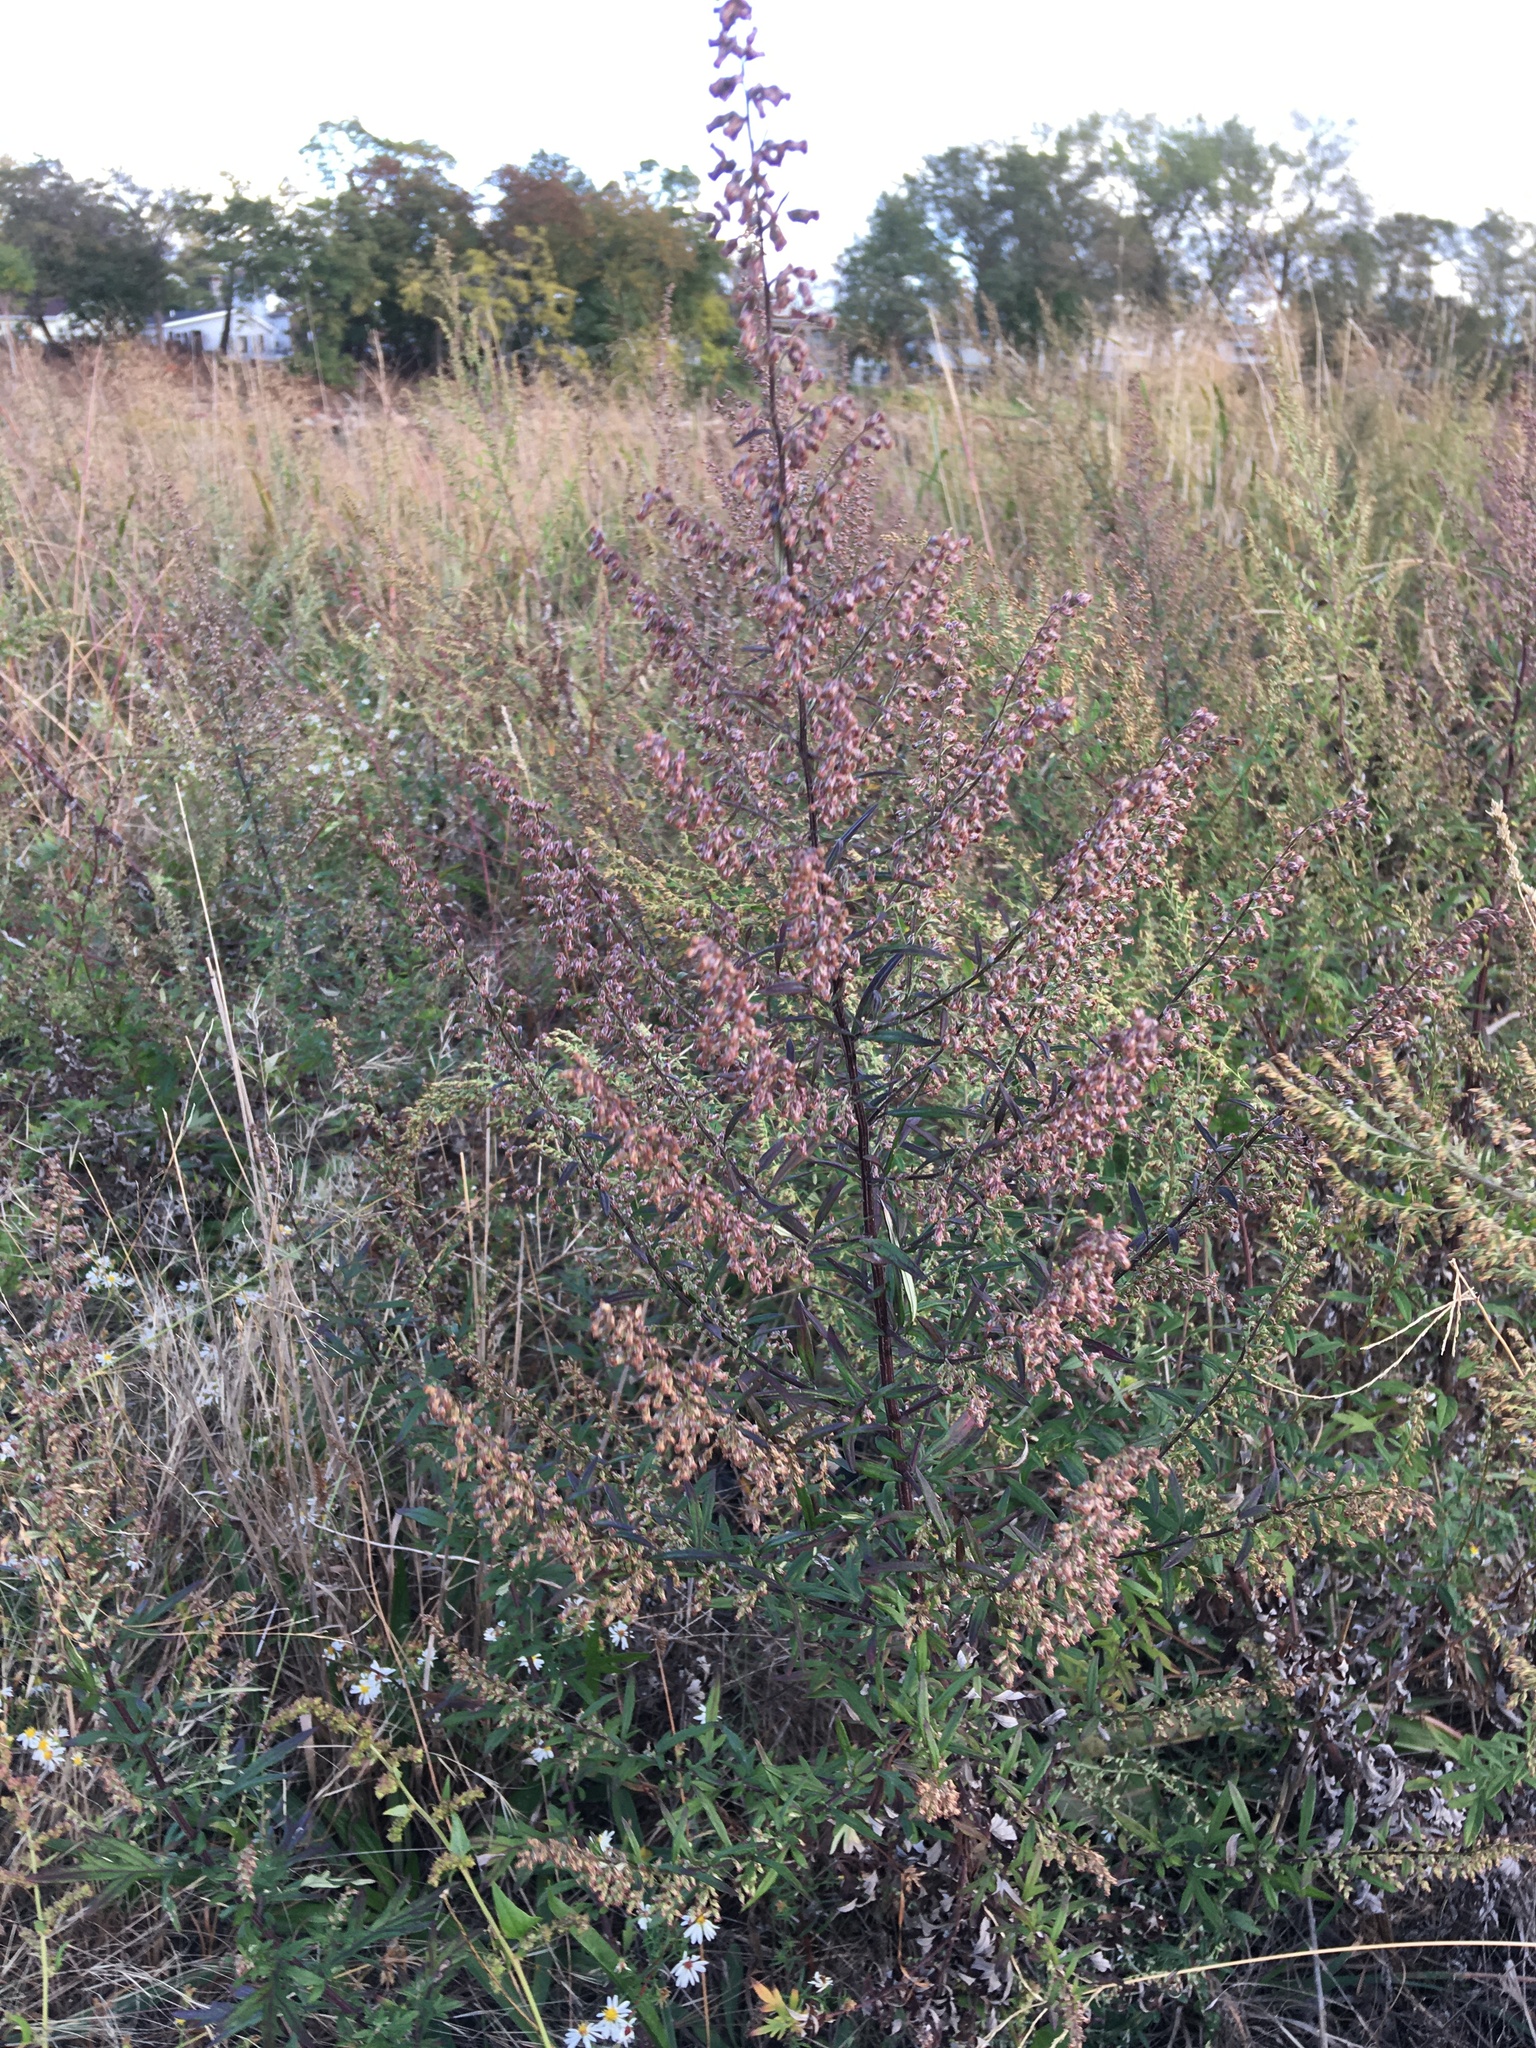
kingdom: Plantae
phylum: Tracheophyta
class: Magnoliopsida
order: Asterales
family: Asteraceae
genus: Artemisia
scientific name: Artemisia vulgaris
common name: Mugwort
